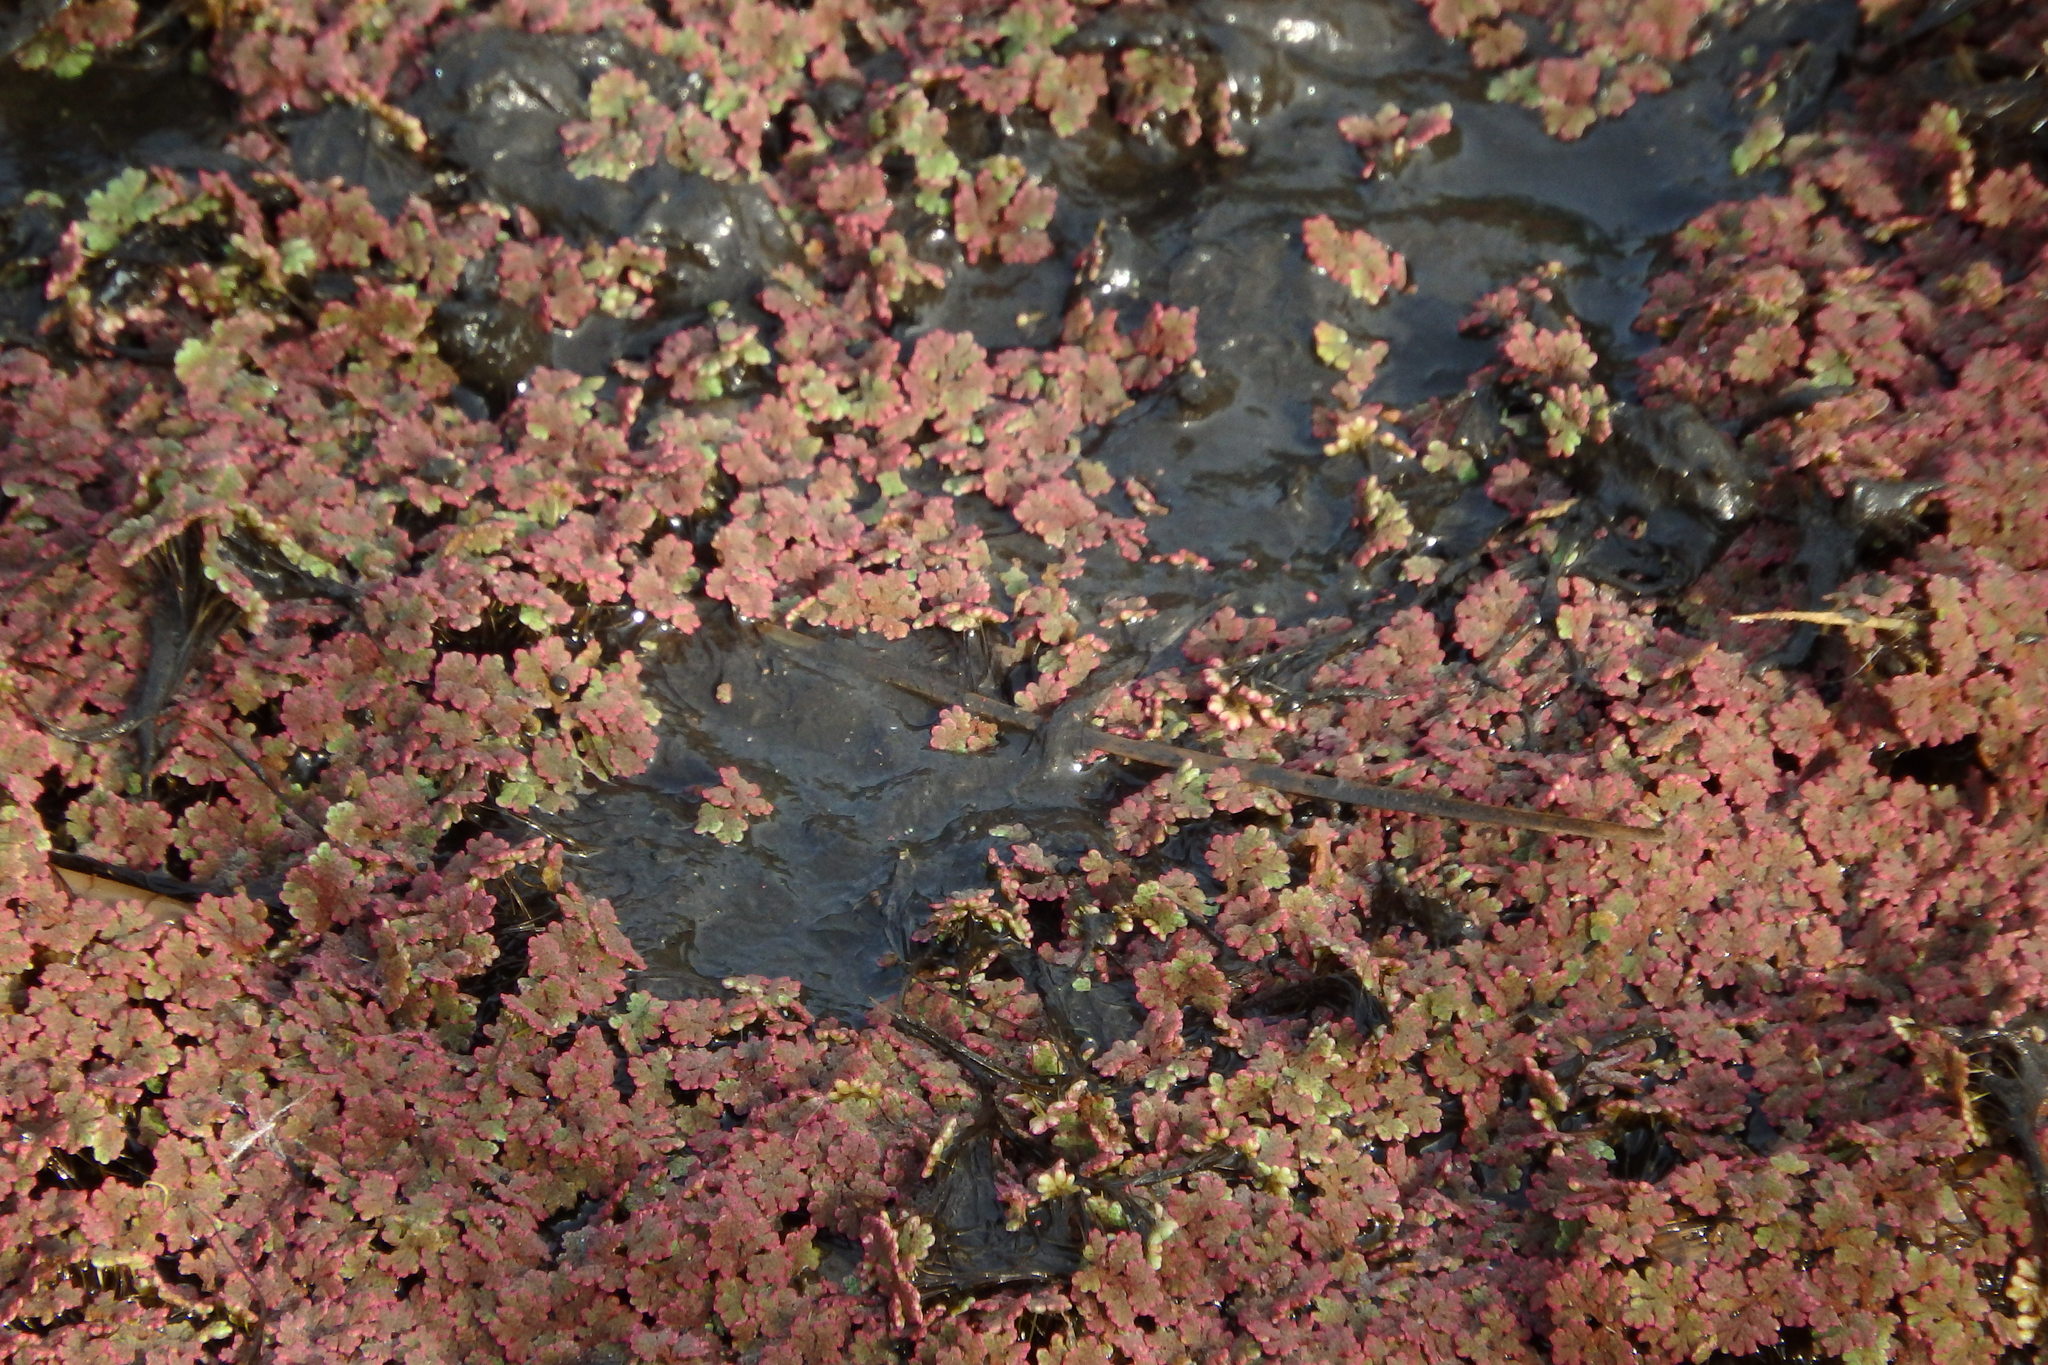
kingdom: Plantae
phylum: Tracheophyta
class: Polypodiopsida
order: Salviniales
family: Salviniaceae
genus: Azolla
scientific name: Azolla filiculoides
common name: Water fern
